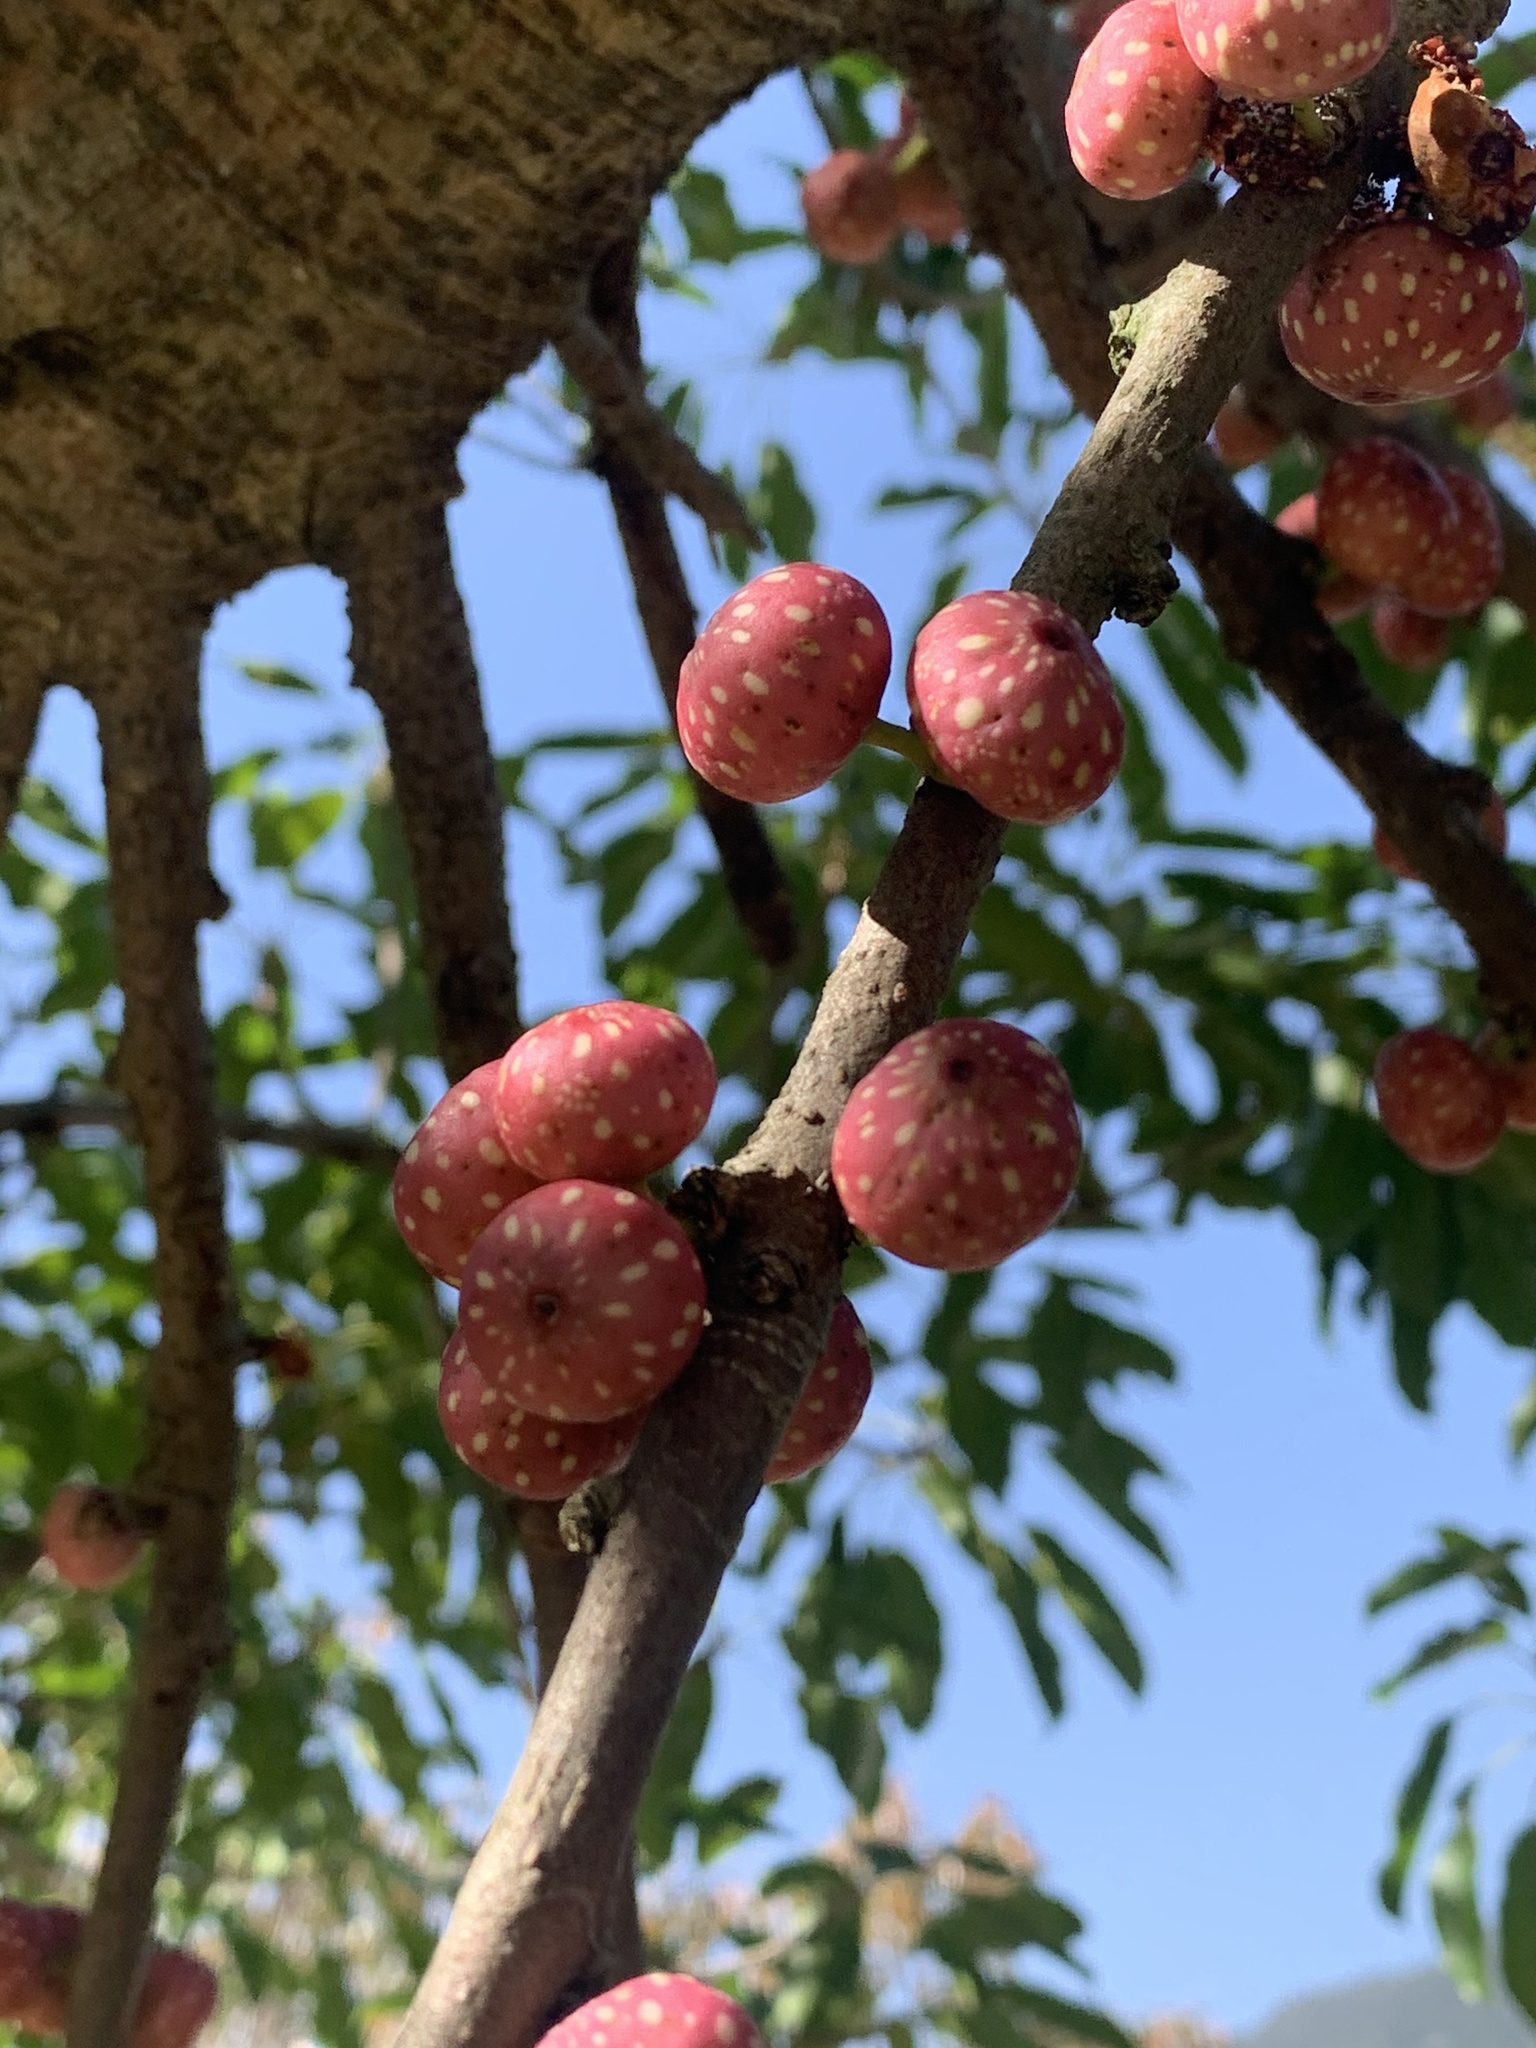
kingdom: Plantae
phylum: Tracheophyta
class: Magnoliopsida
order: Rosales
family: Moraceae
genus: Ficus
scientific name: Ficus subpisocarpa
